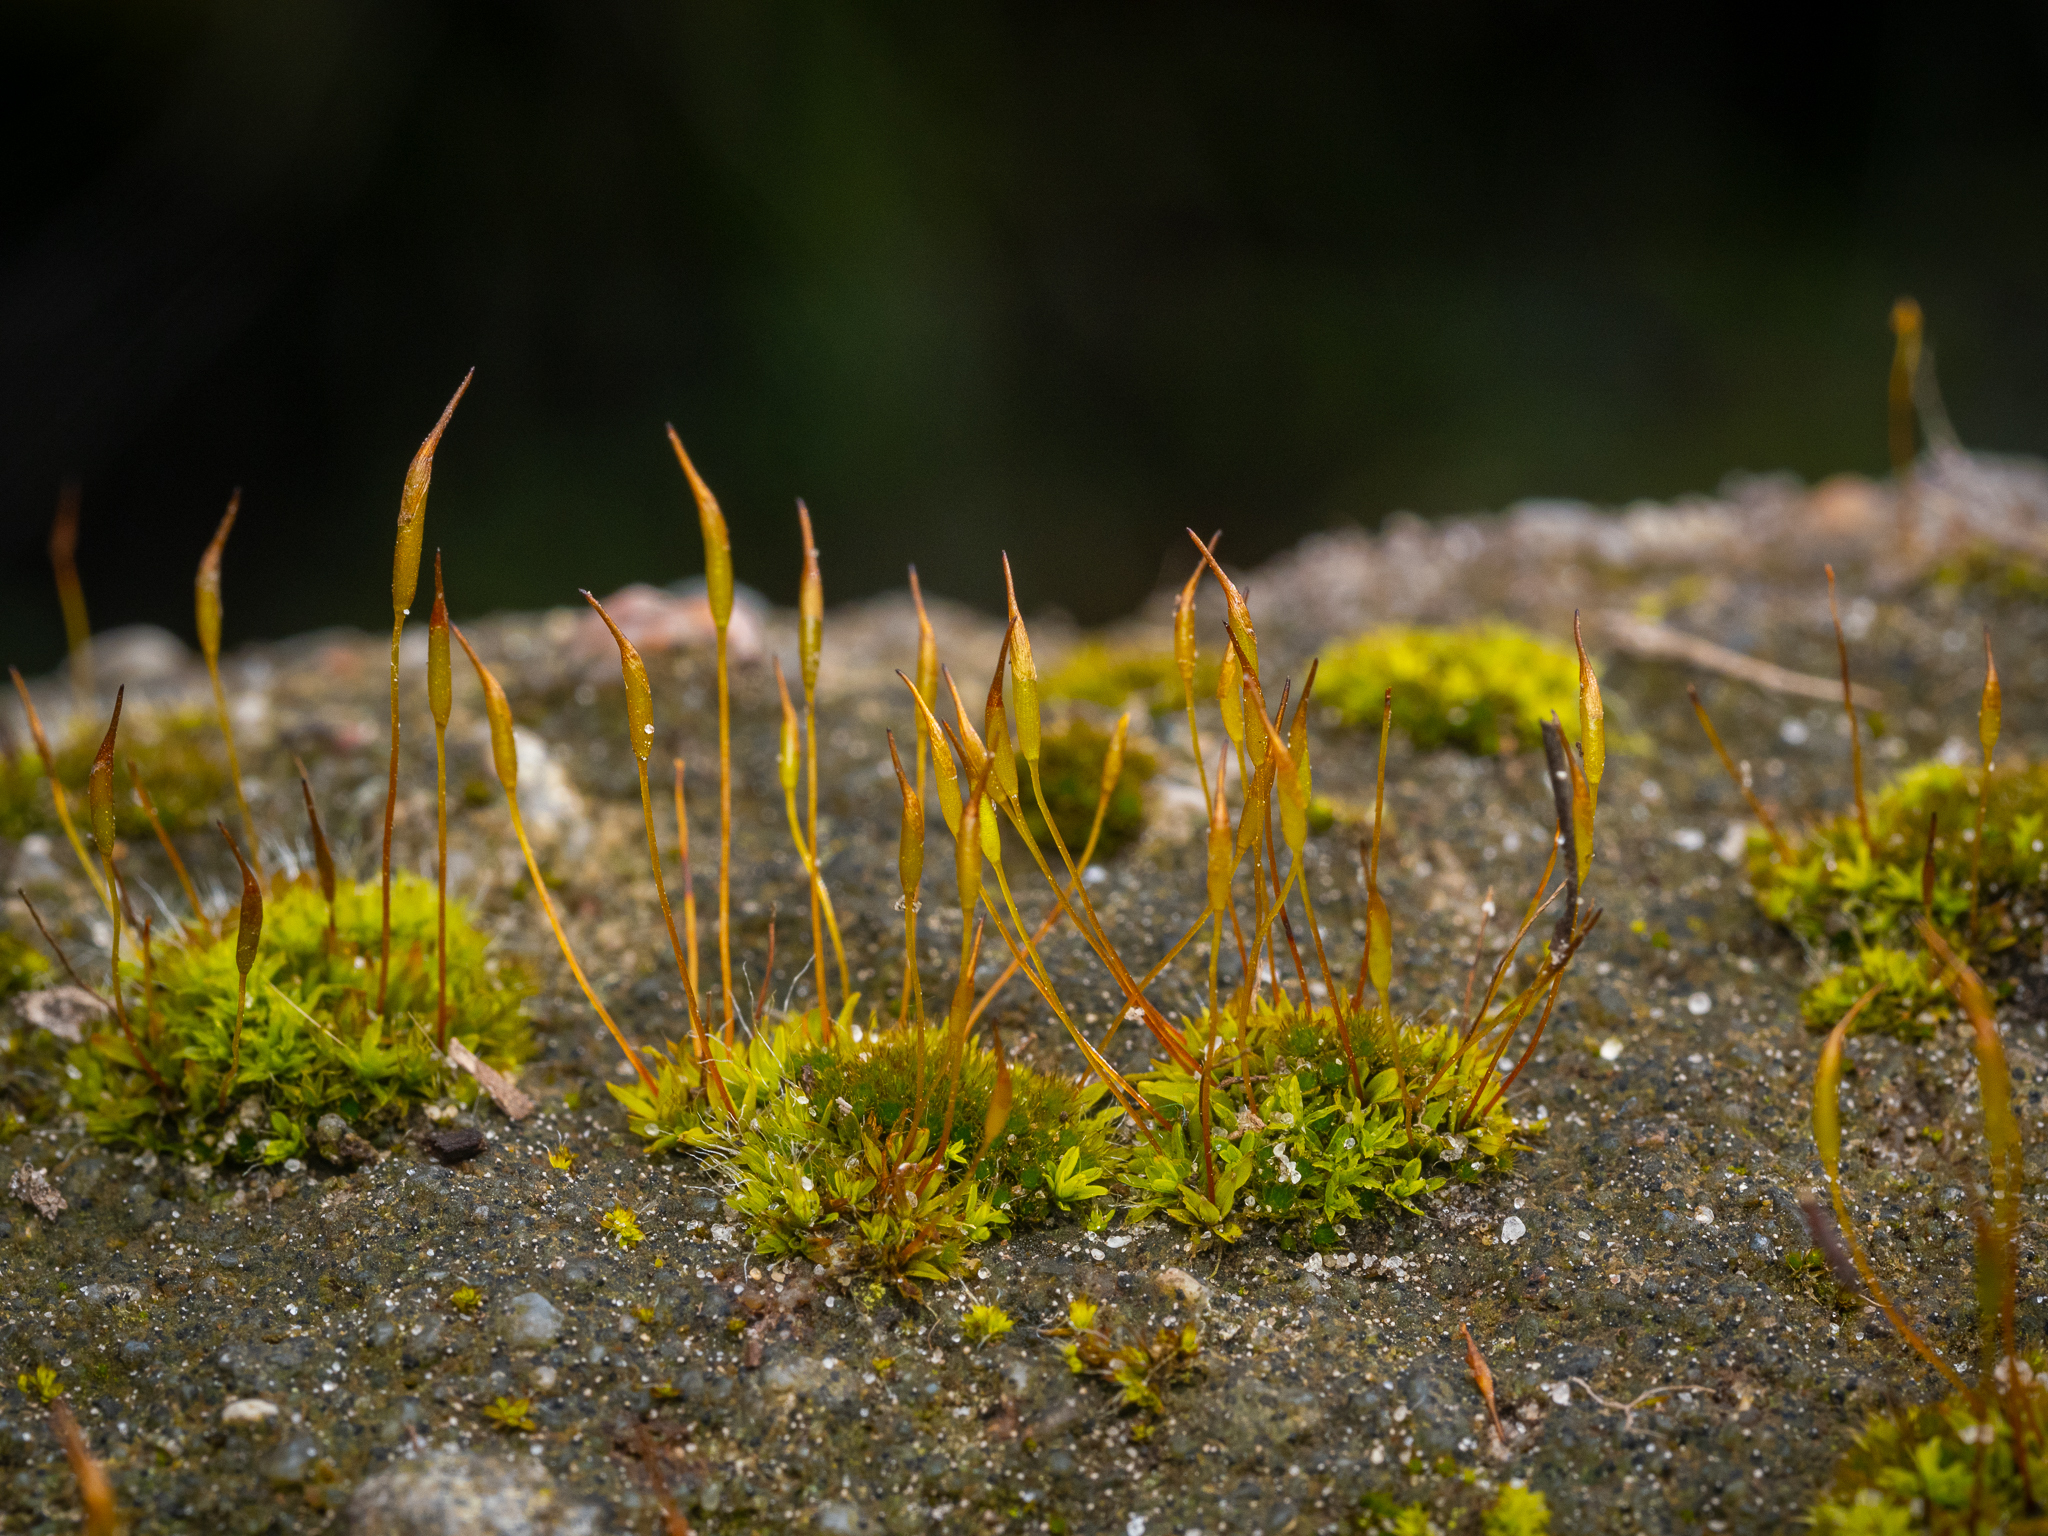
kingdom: Plantae
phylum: Bryophyta
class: Bryopsida
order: Pottiales
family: Pottiaceae
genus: Tortula
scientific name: Tortula muralis
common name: Wall screw-moss
